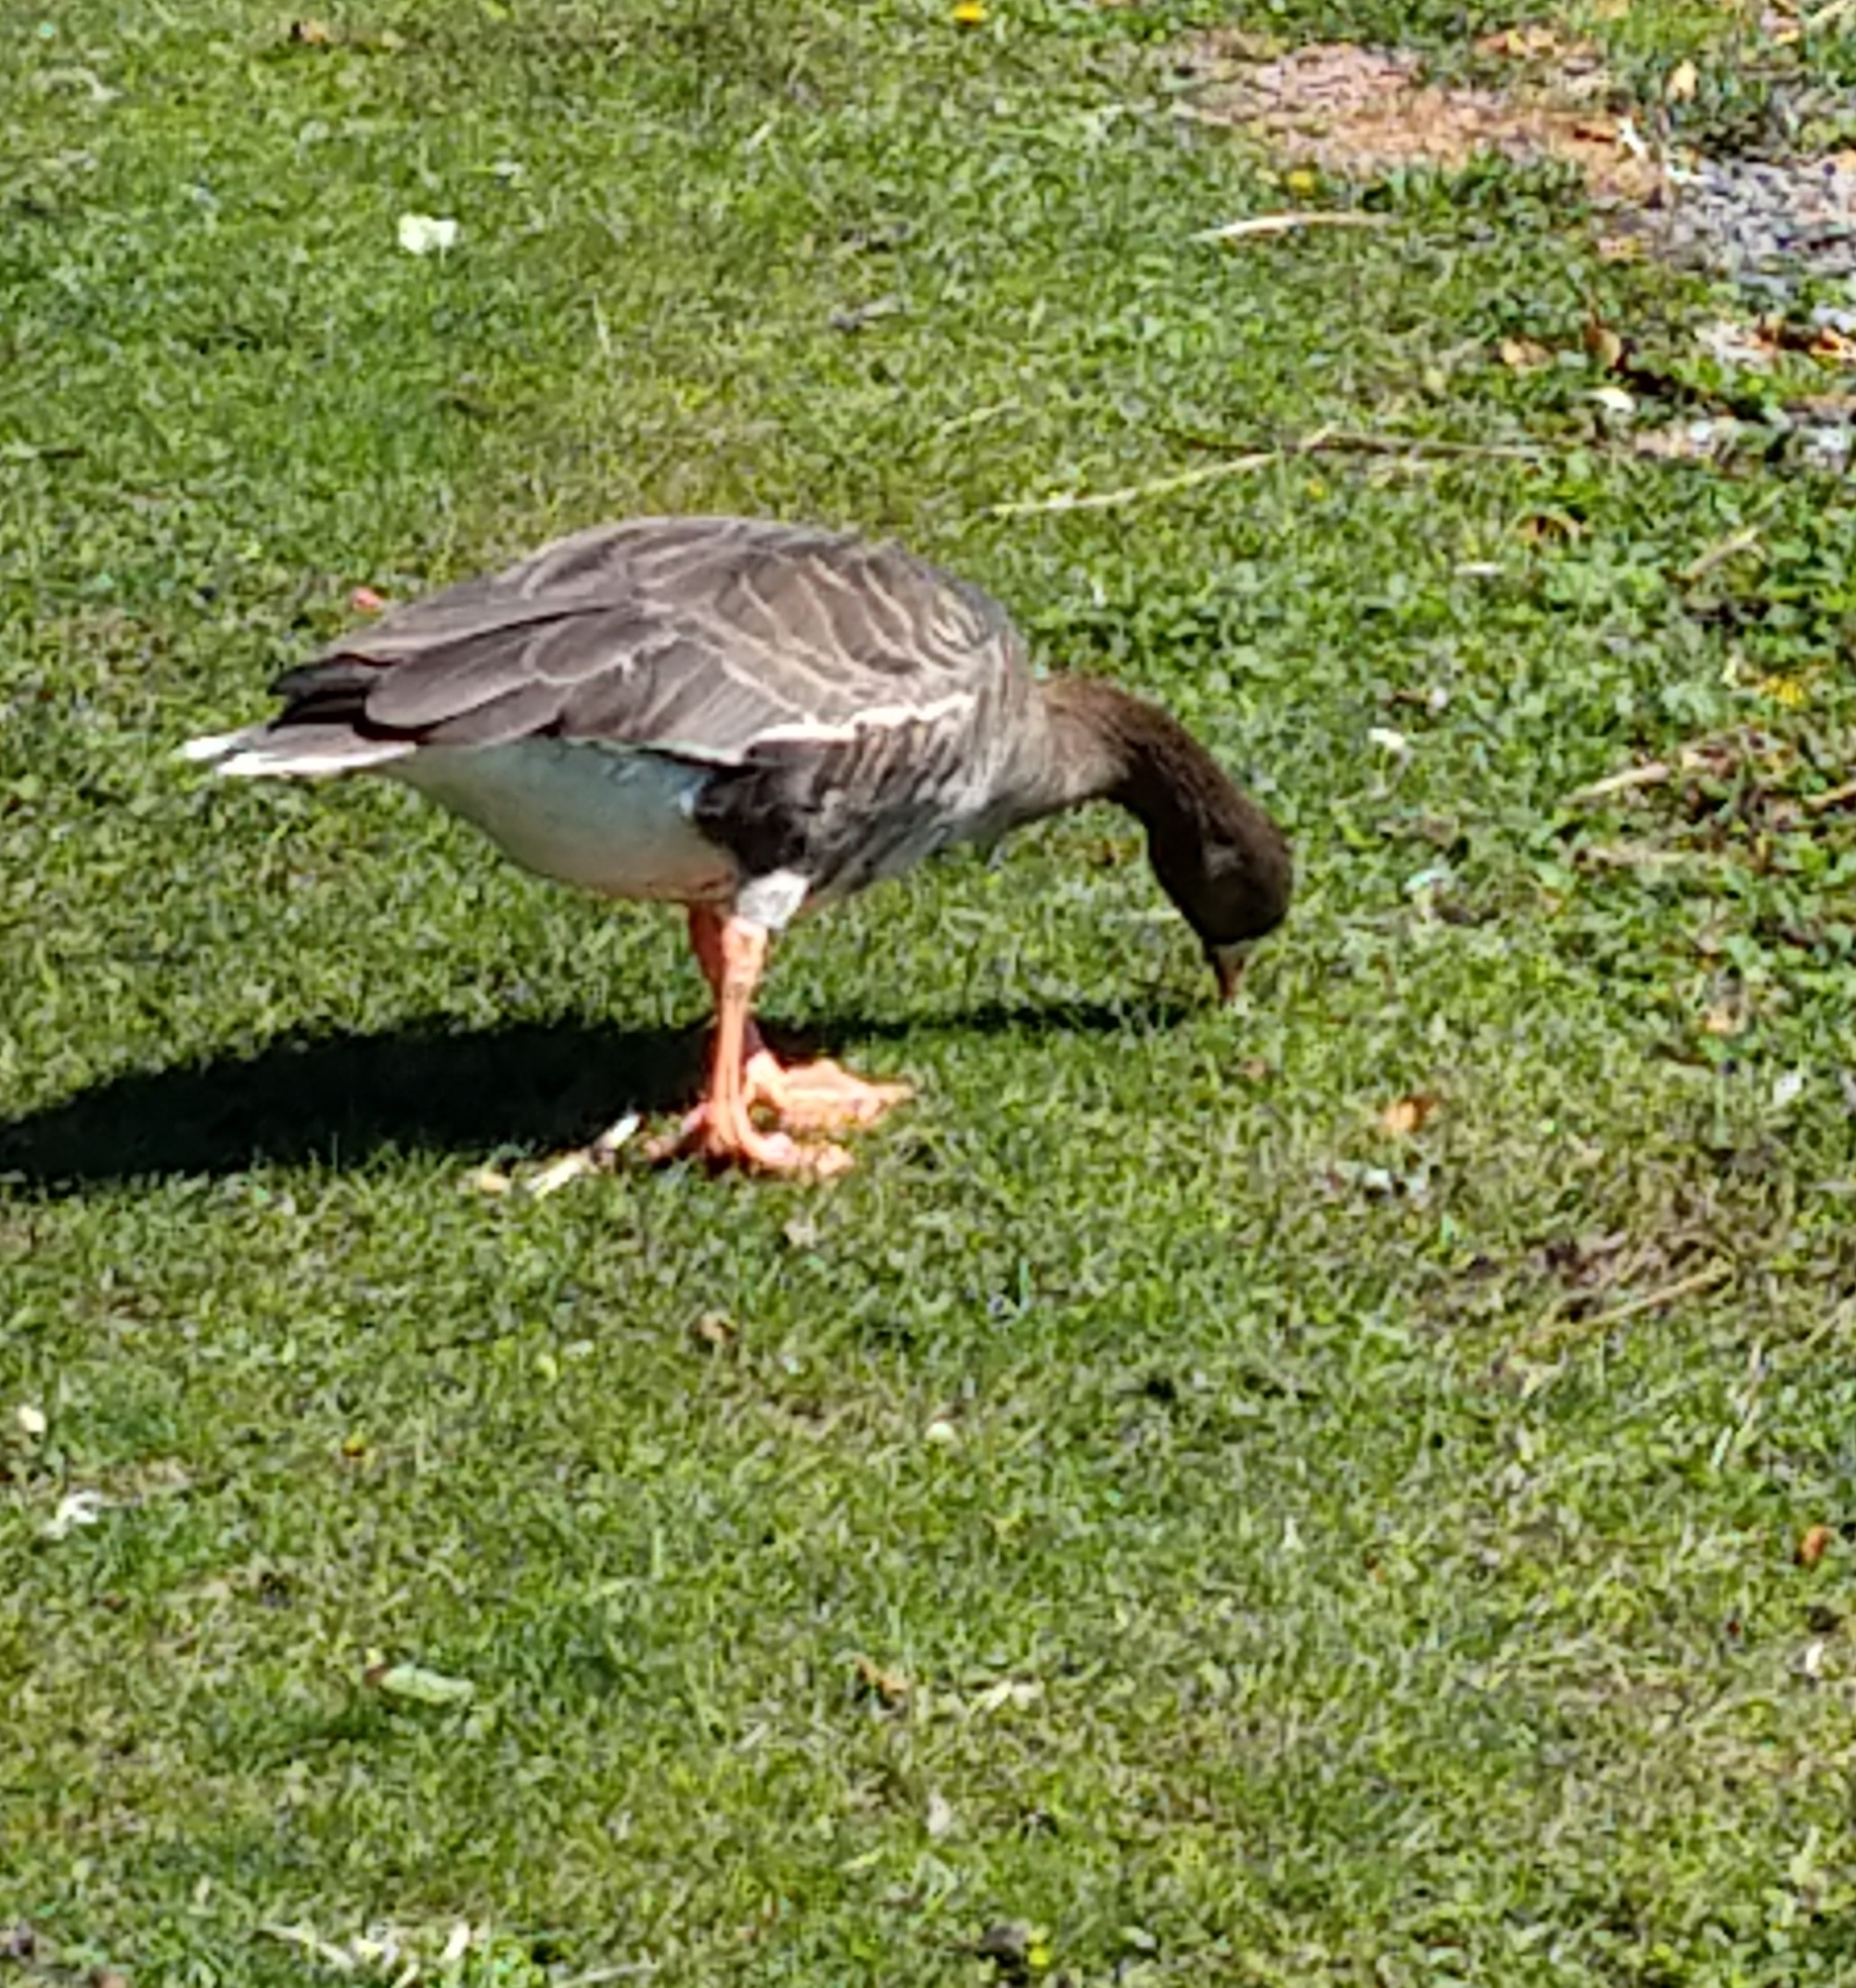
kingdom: Animalia
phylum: Chordata
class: Aves
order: Anseriformes
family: Anatidae
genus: Anser
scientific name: Anser albifrons
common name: Greater white-fronted goose
